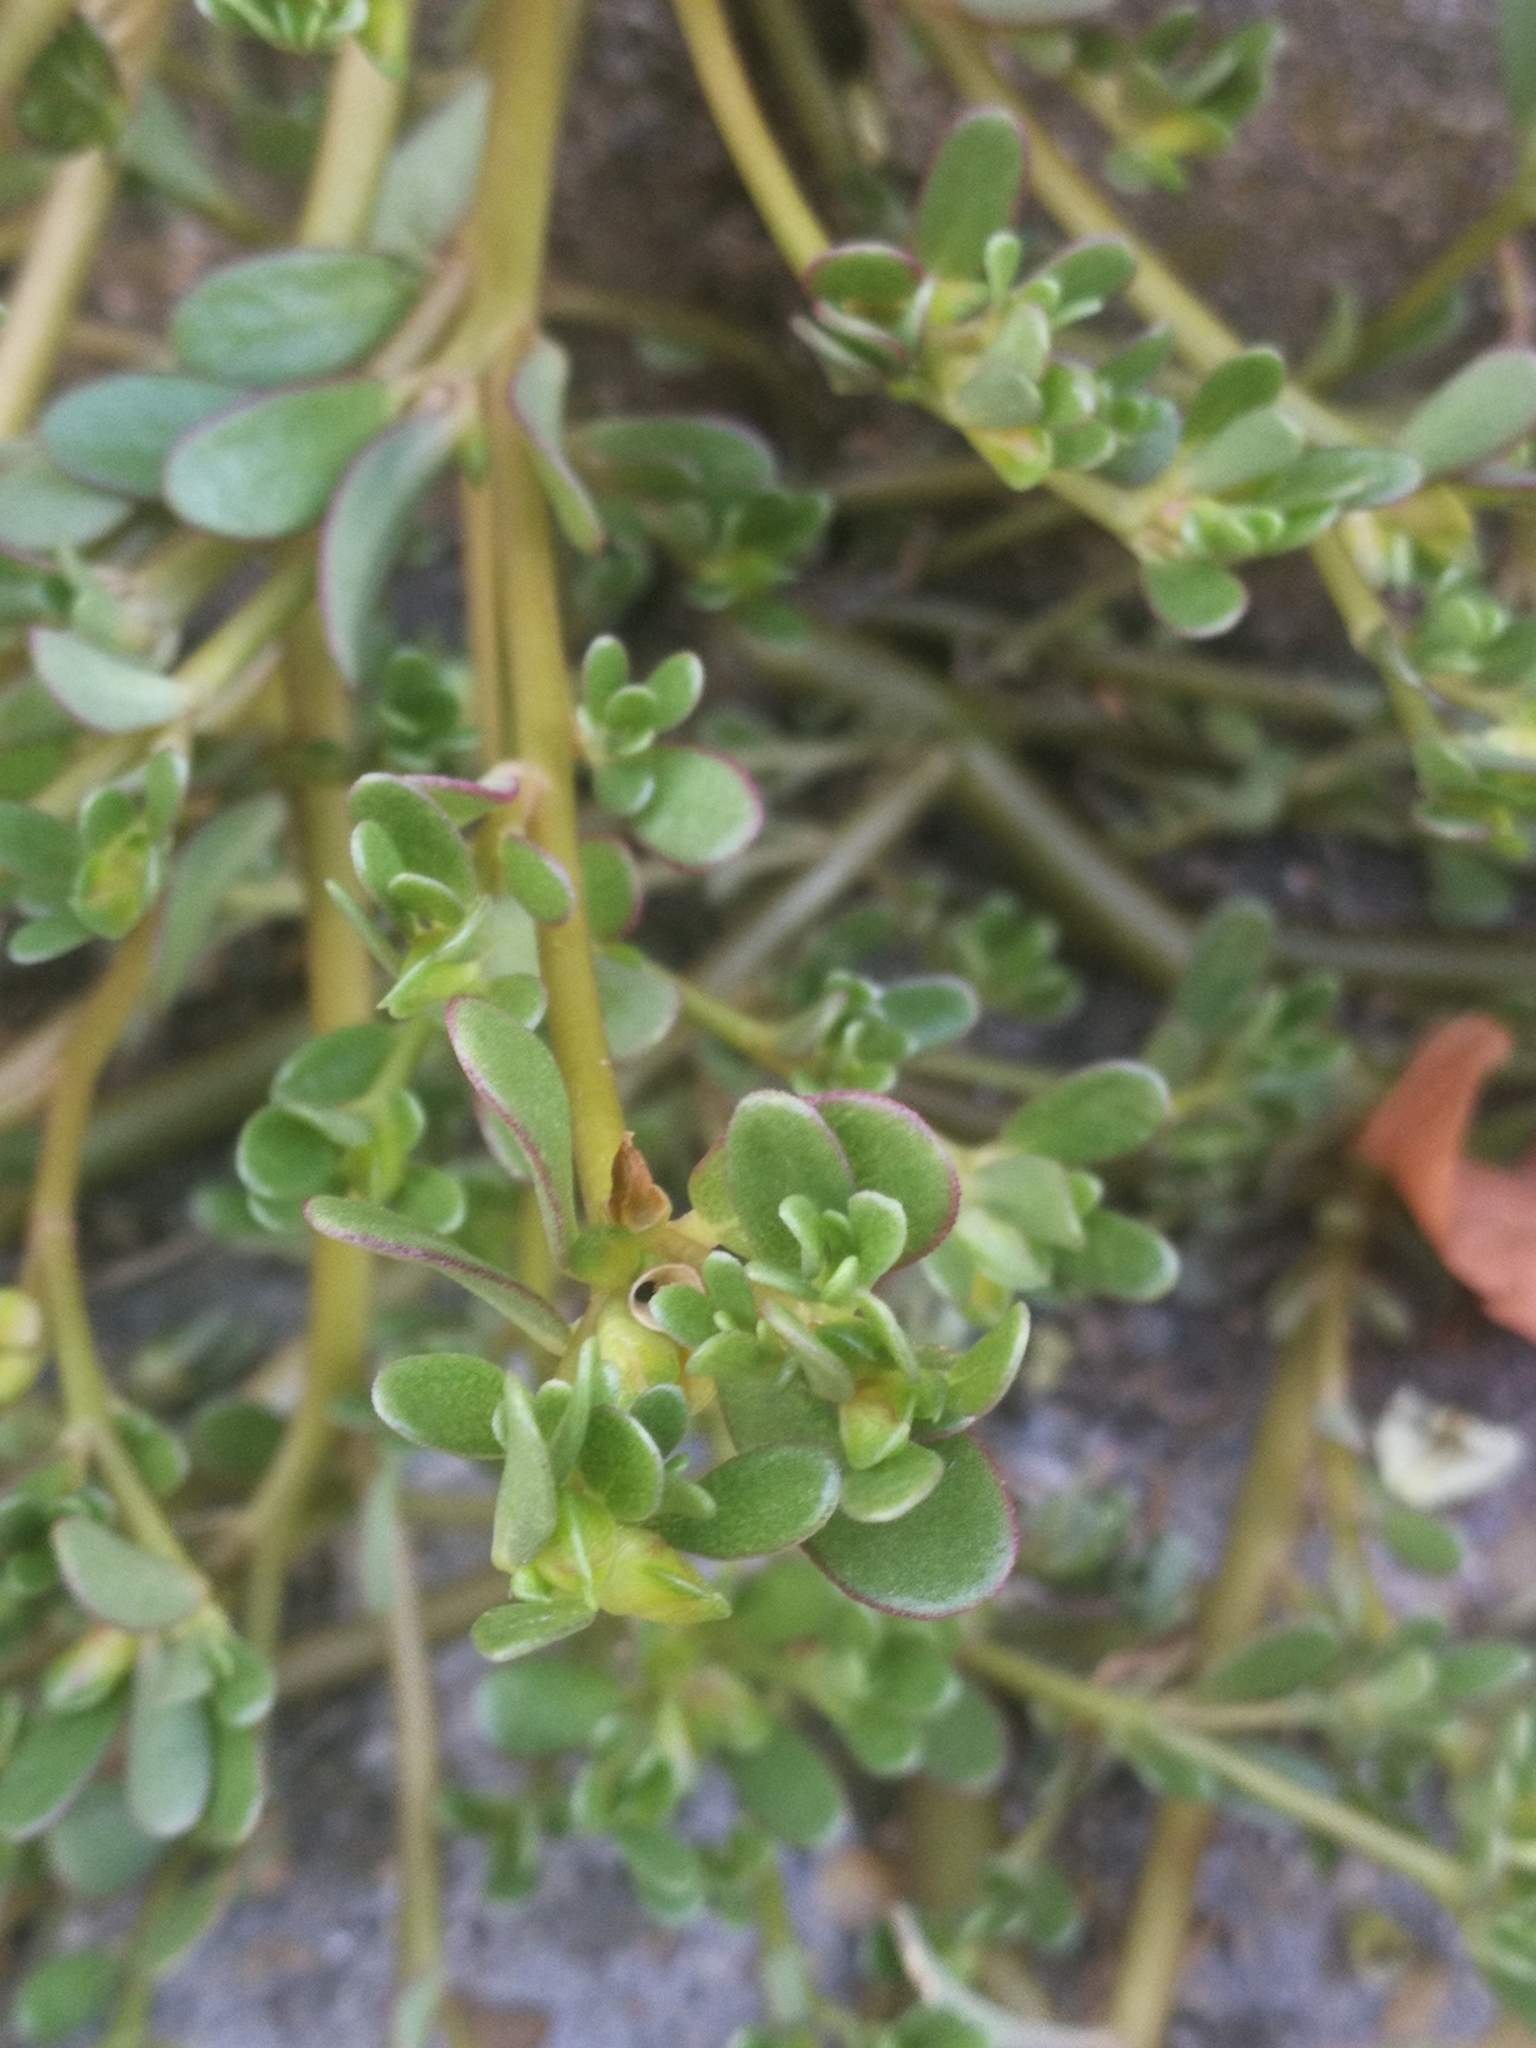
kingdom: Plantae
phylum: Tracheophyta
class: Magnoliopsida
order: Caryophyllales
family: Portulacaceae
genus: Portulaca
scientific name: Portulaca oleracea
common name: Common purslane
